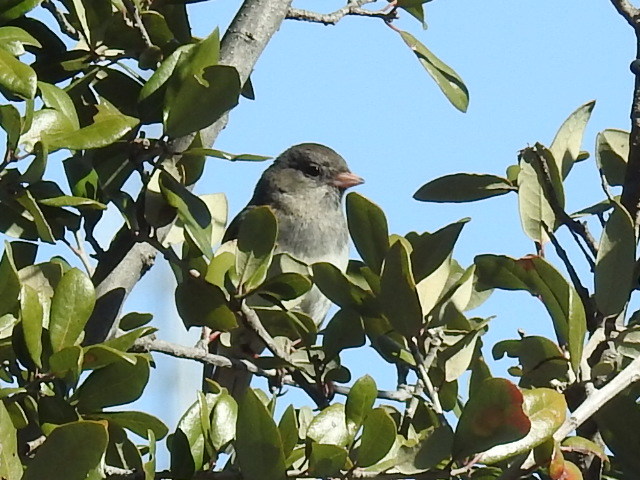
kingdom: Animalia
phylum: Chordata
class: Aves
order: Passeriformes
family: Passerellidae
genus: Junco
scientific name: Junco hyemalis
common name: Dark-eyed junco
